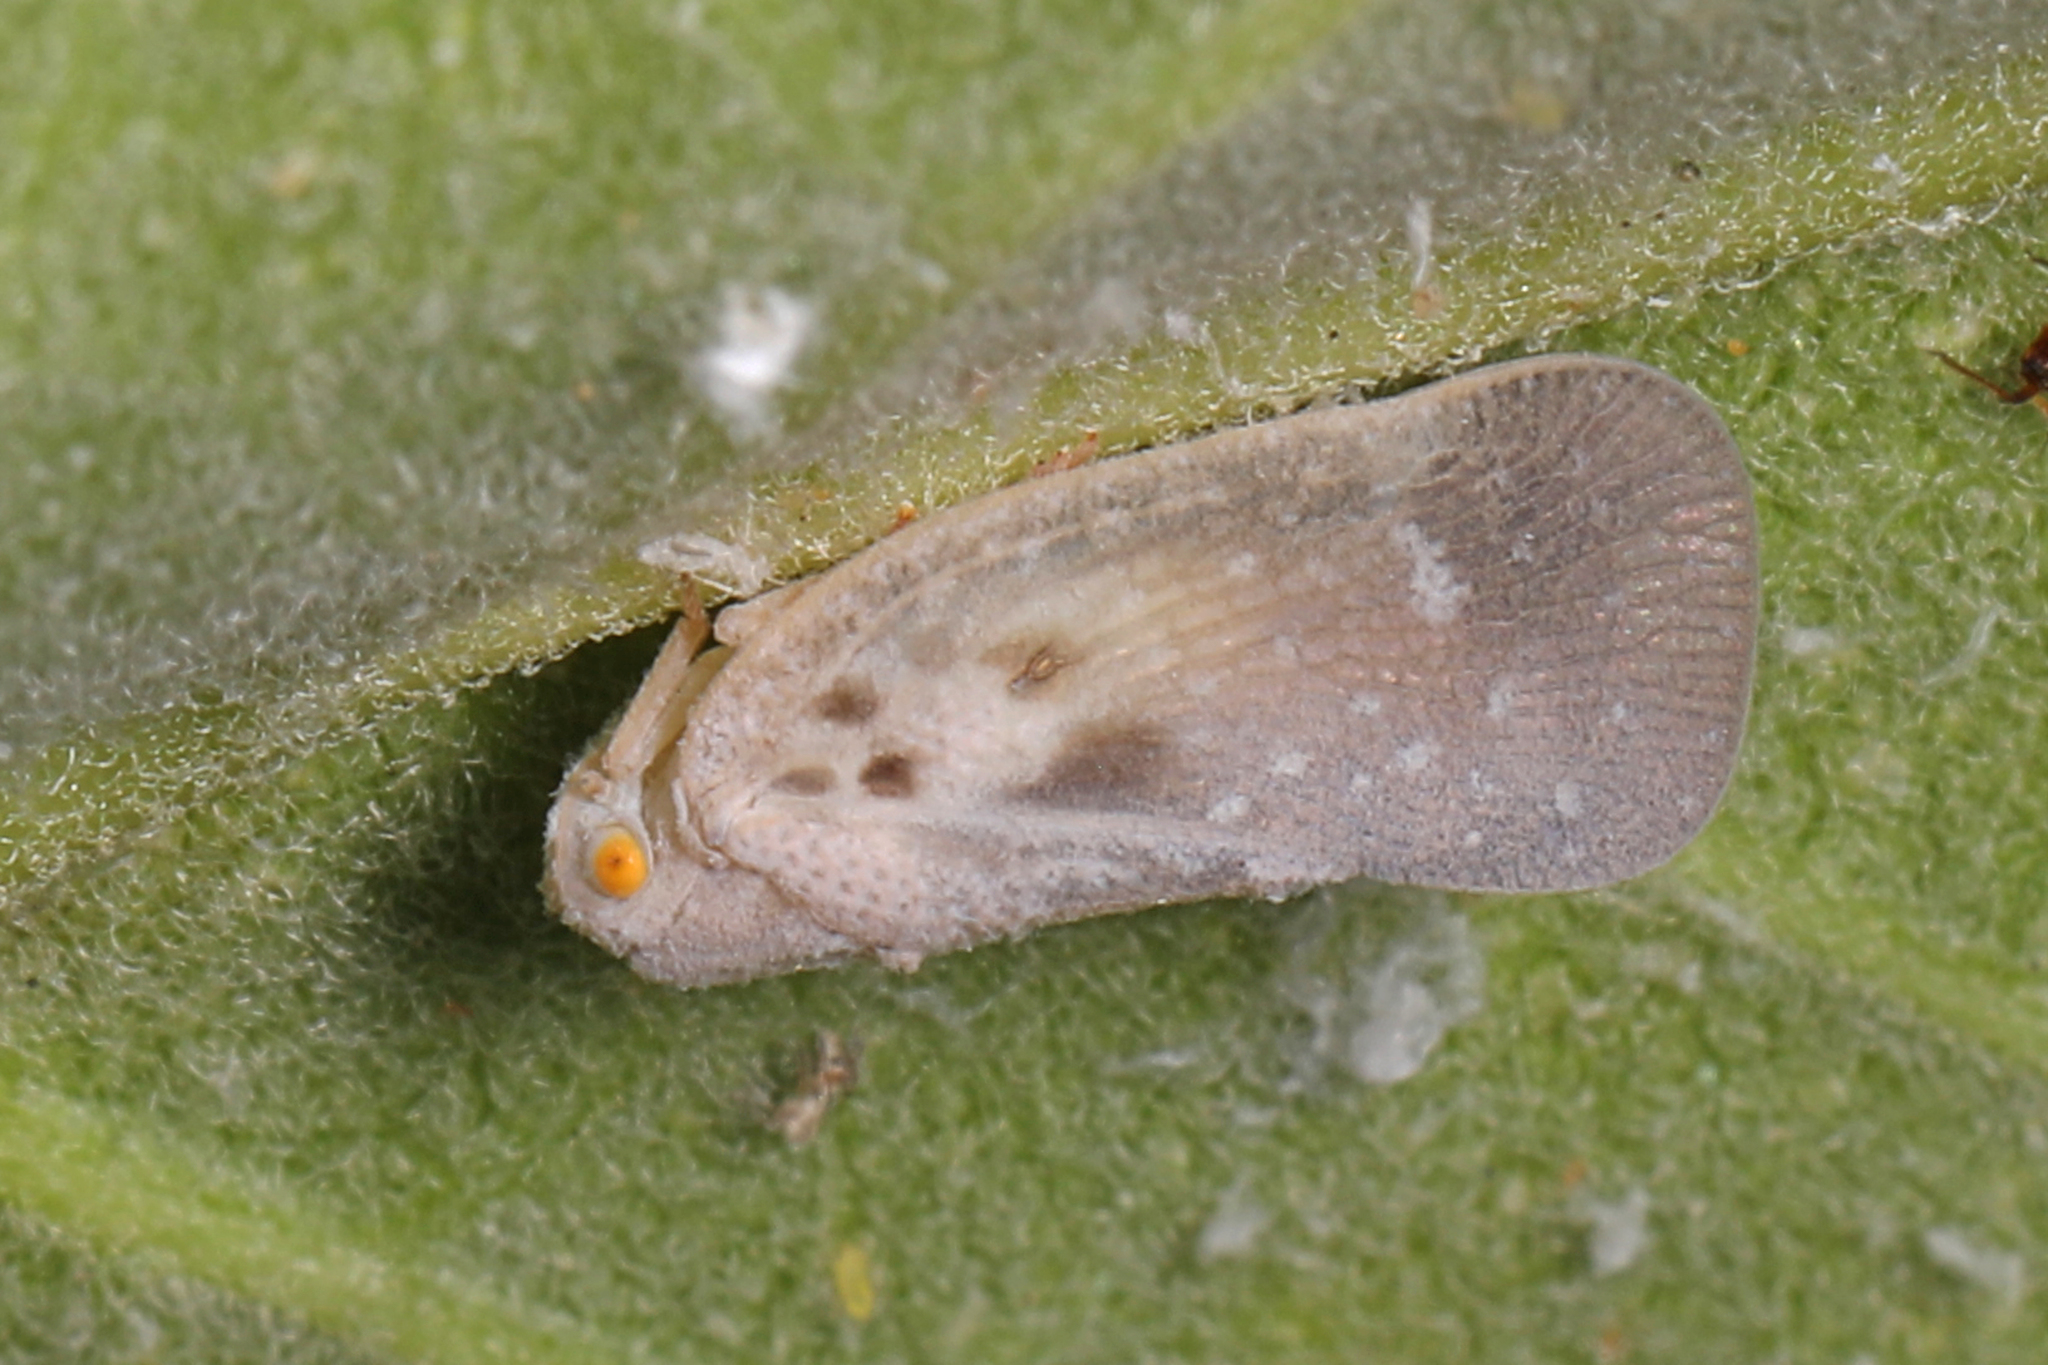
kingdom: Animalia
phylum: Arthropoda
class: Insecta
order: Hemiptera
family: Flatidae
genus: Metcalfa
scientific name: Metcalfa pruinosa
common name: Citrus flatid planthopper
